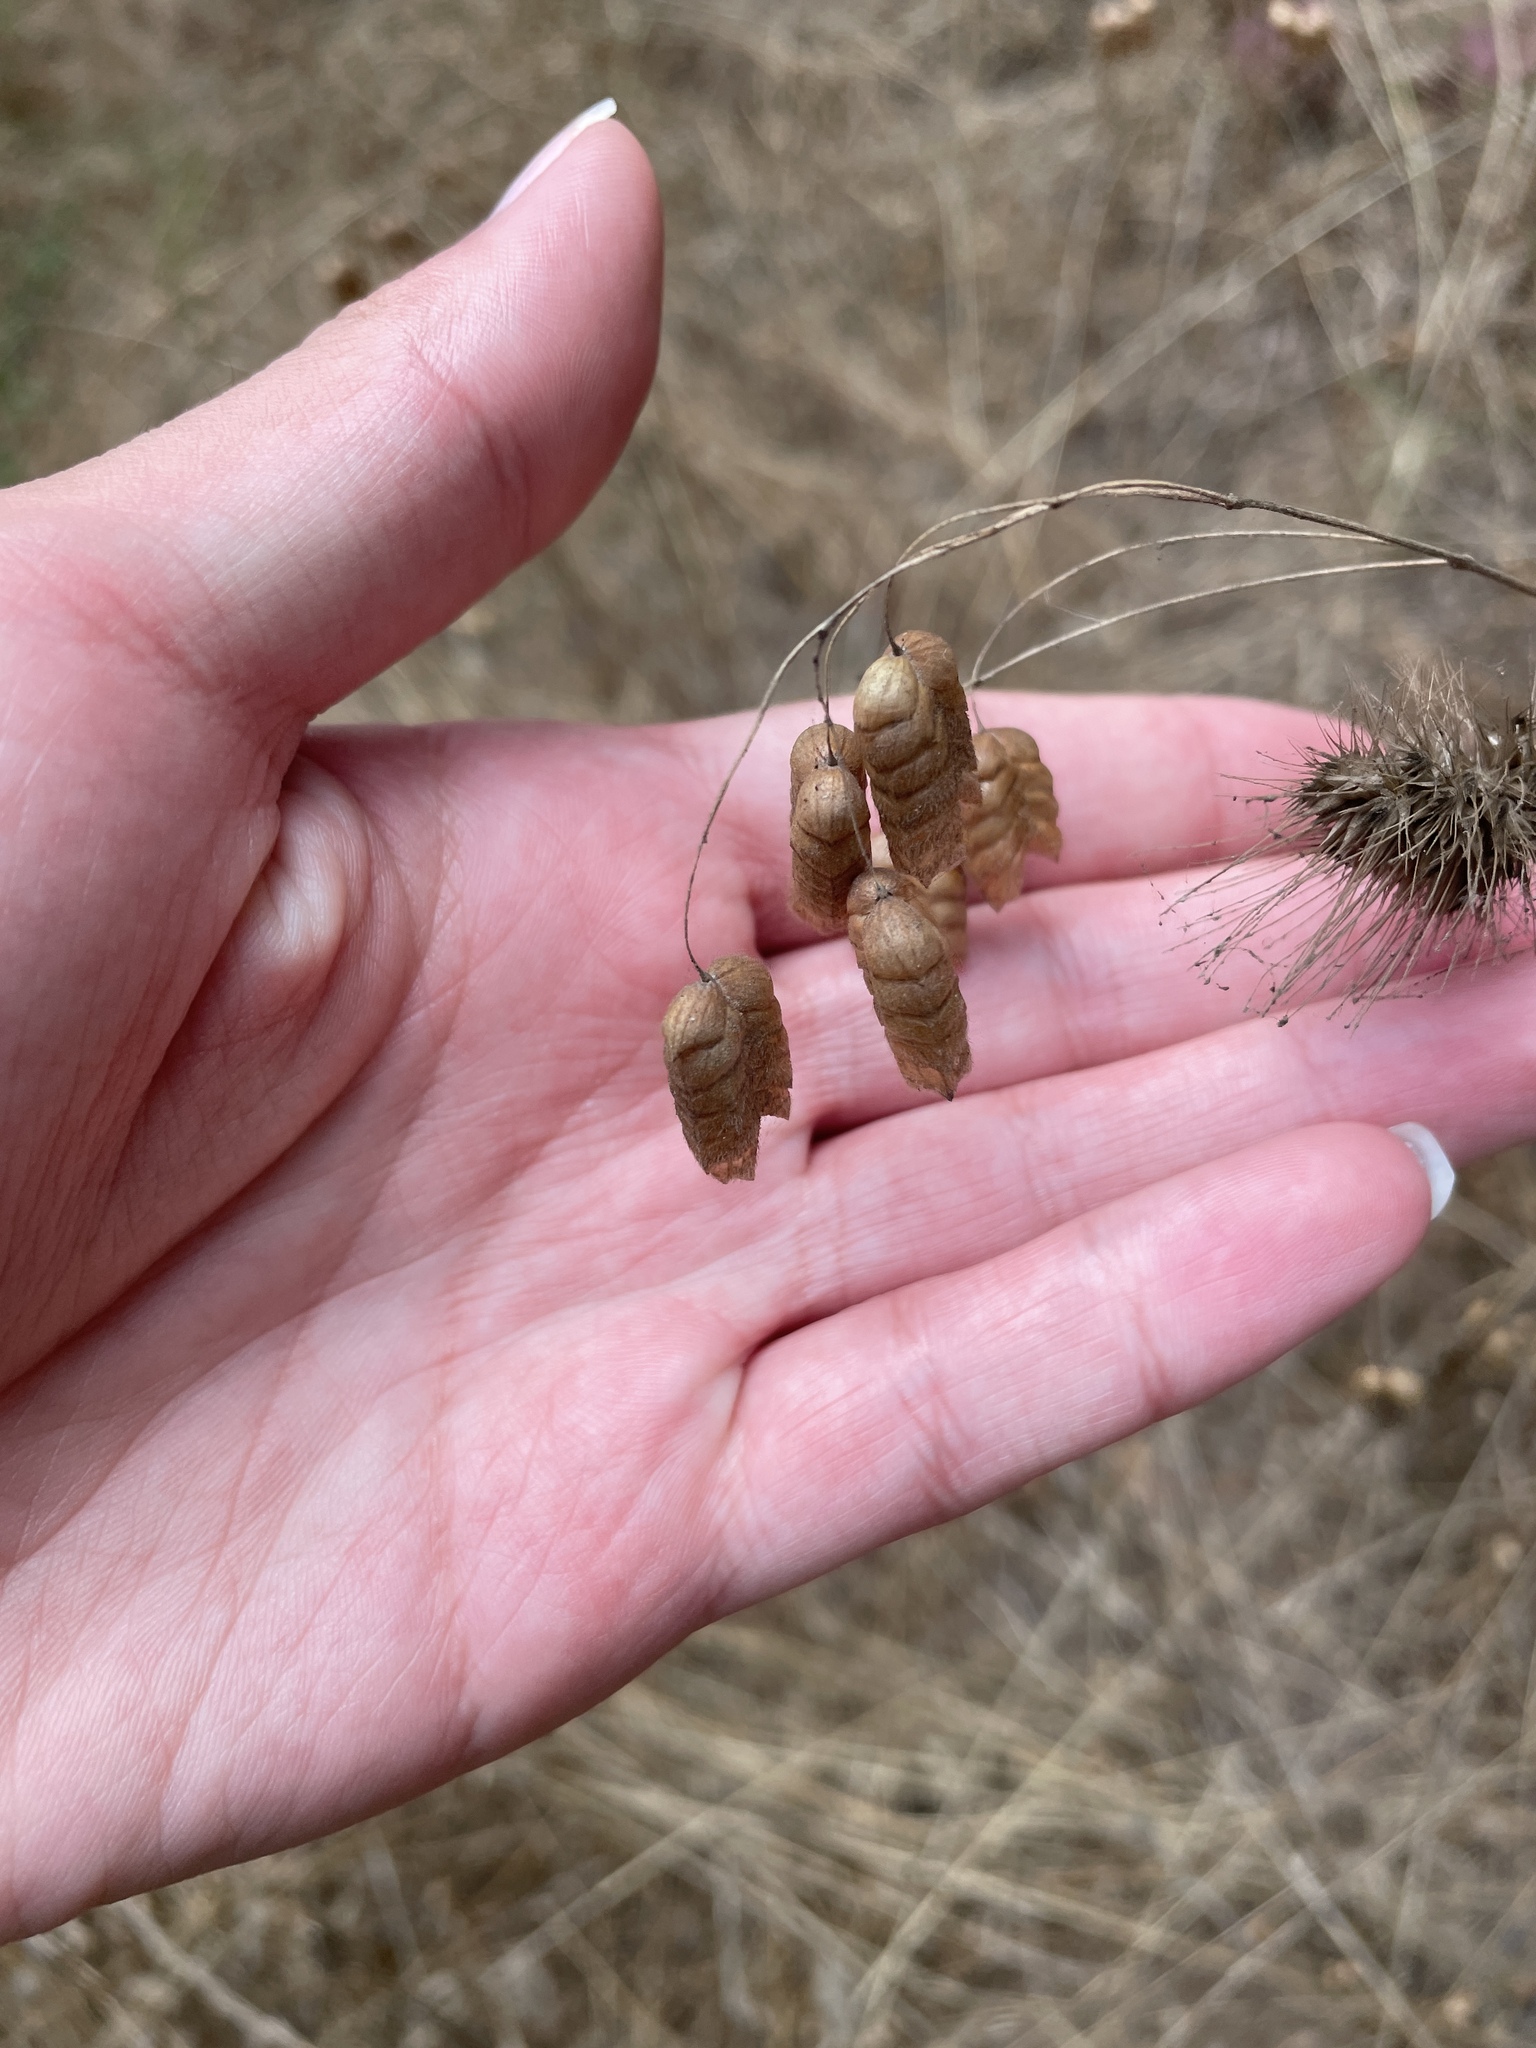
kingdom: Plantae
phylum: Tracheophyta
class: Liliopsida
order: Poales
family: Poaceae
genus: Briza
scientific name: Briza maxima
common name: Big quakinggrass
